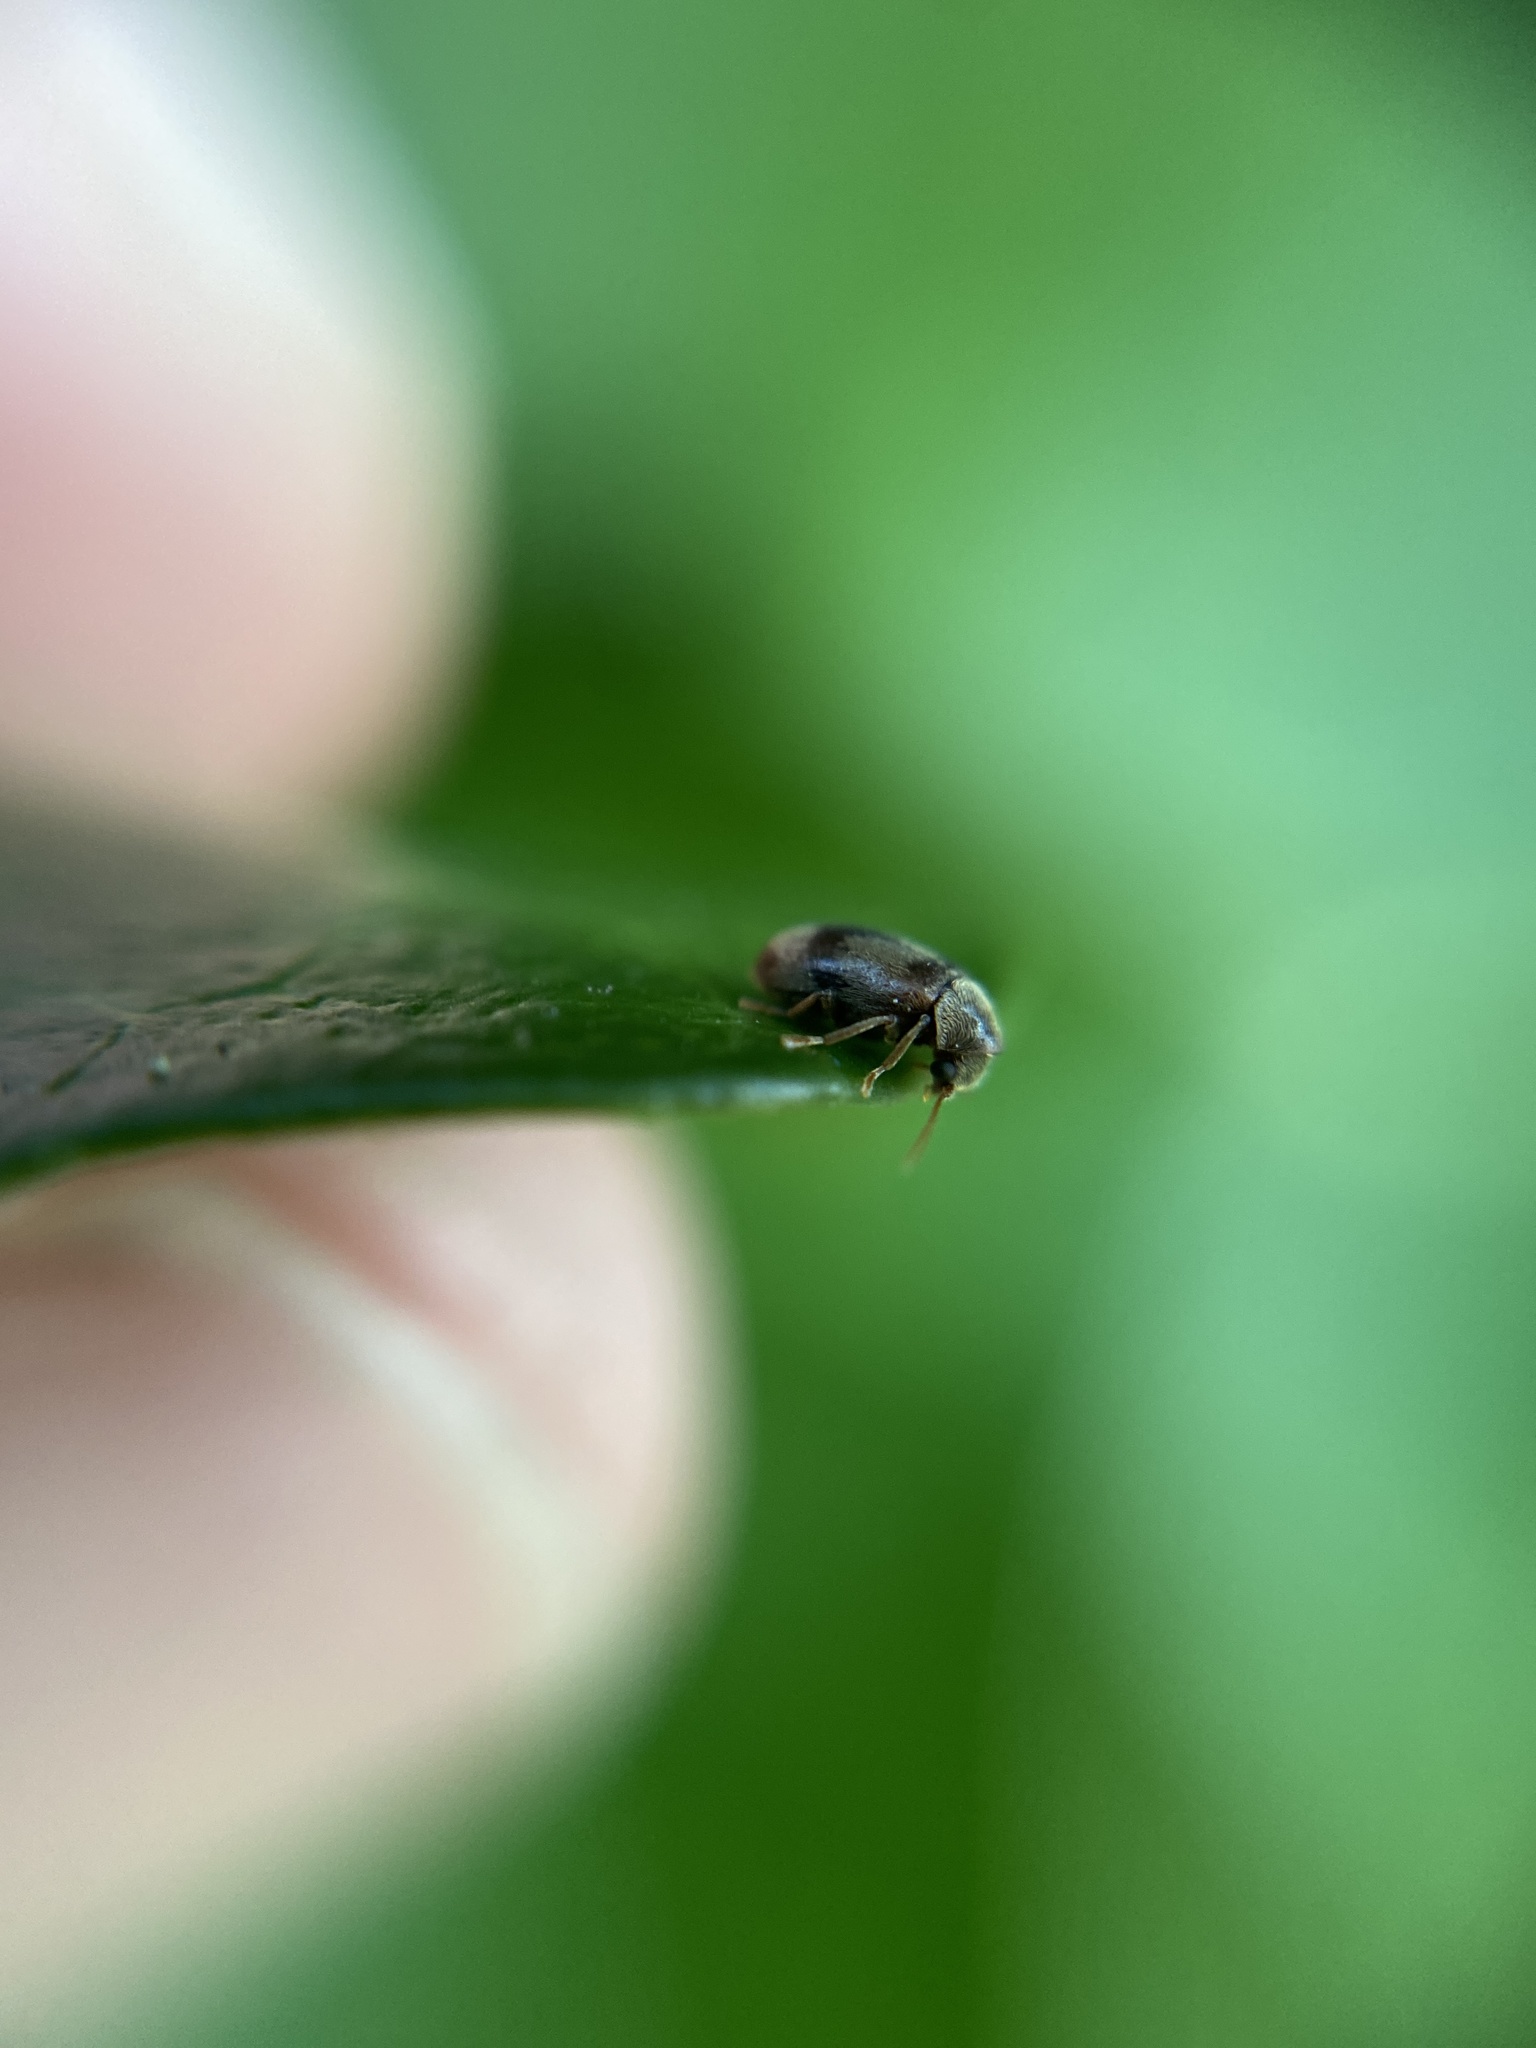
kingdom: Animalia
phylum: Arthropoda
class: Insecta
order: Coleoptera
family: Ptinidae
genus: Ochina
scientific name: Ochina ptinoides
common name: Ivy boring beetle
